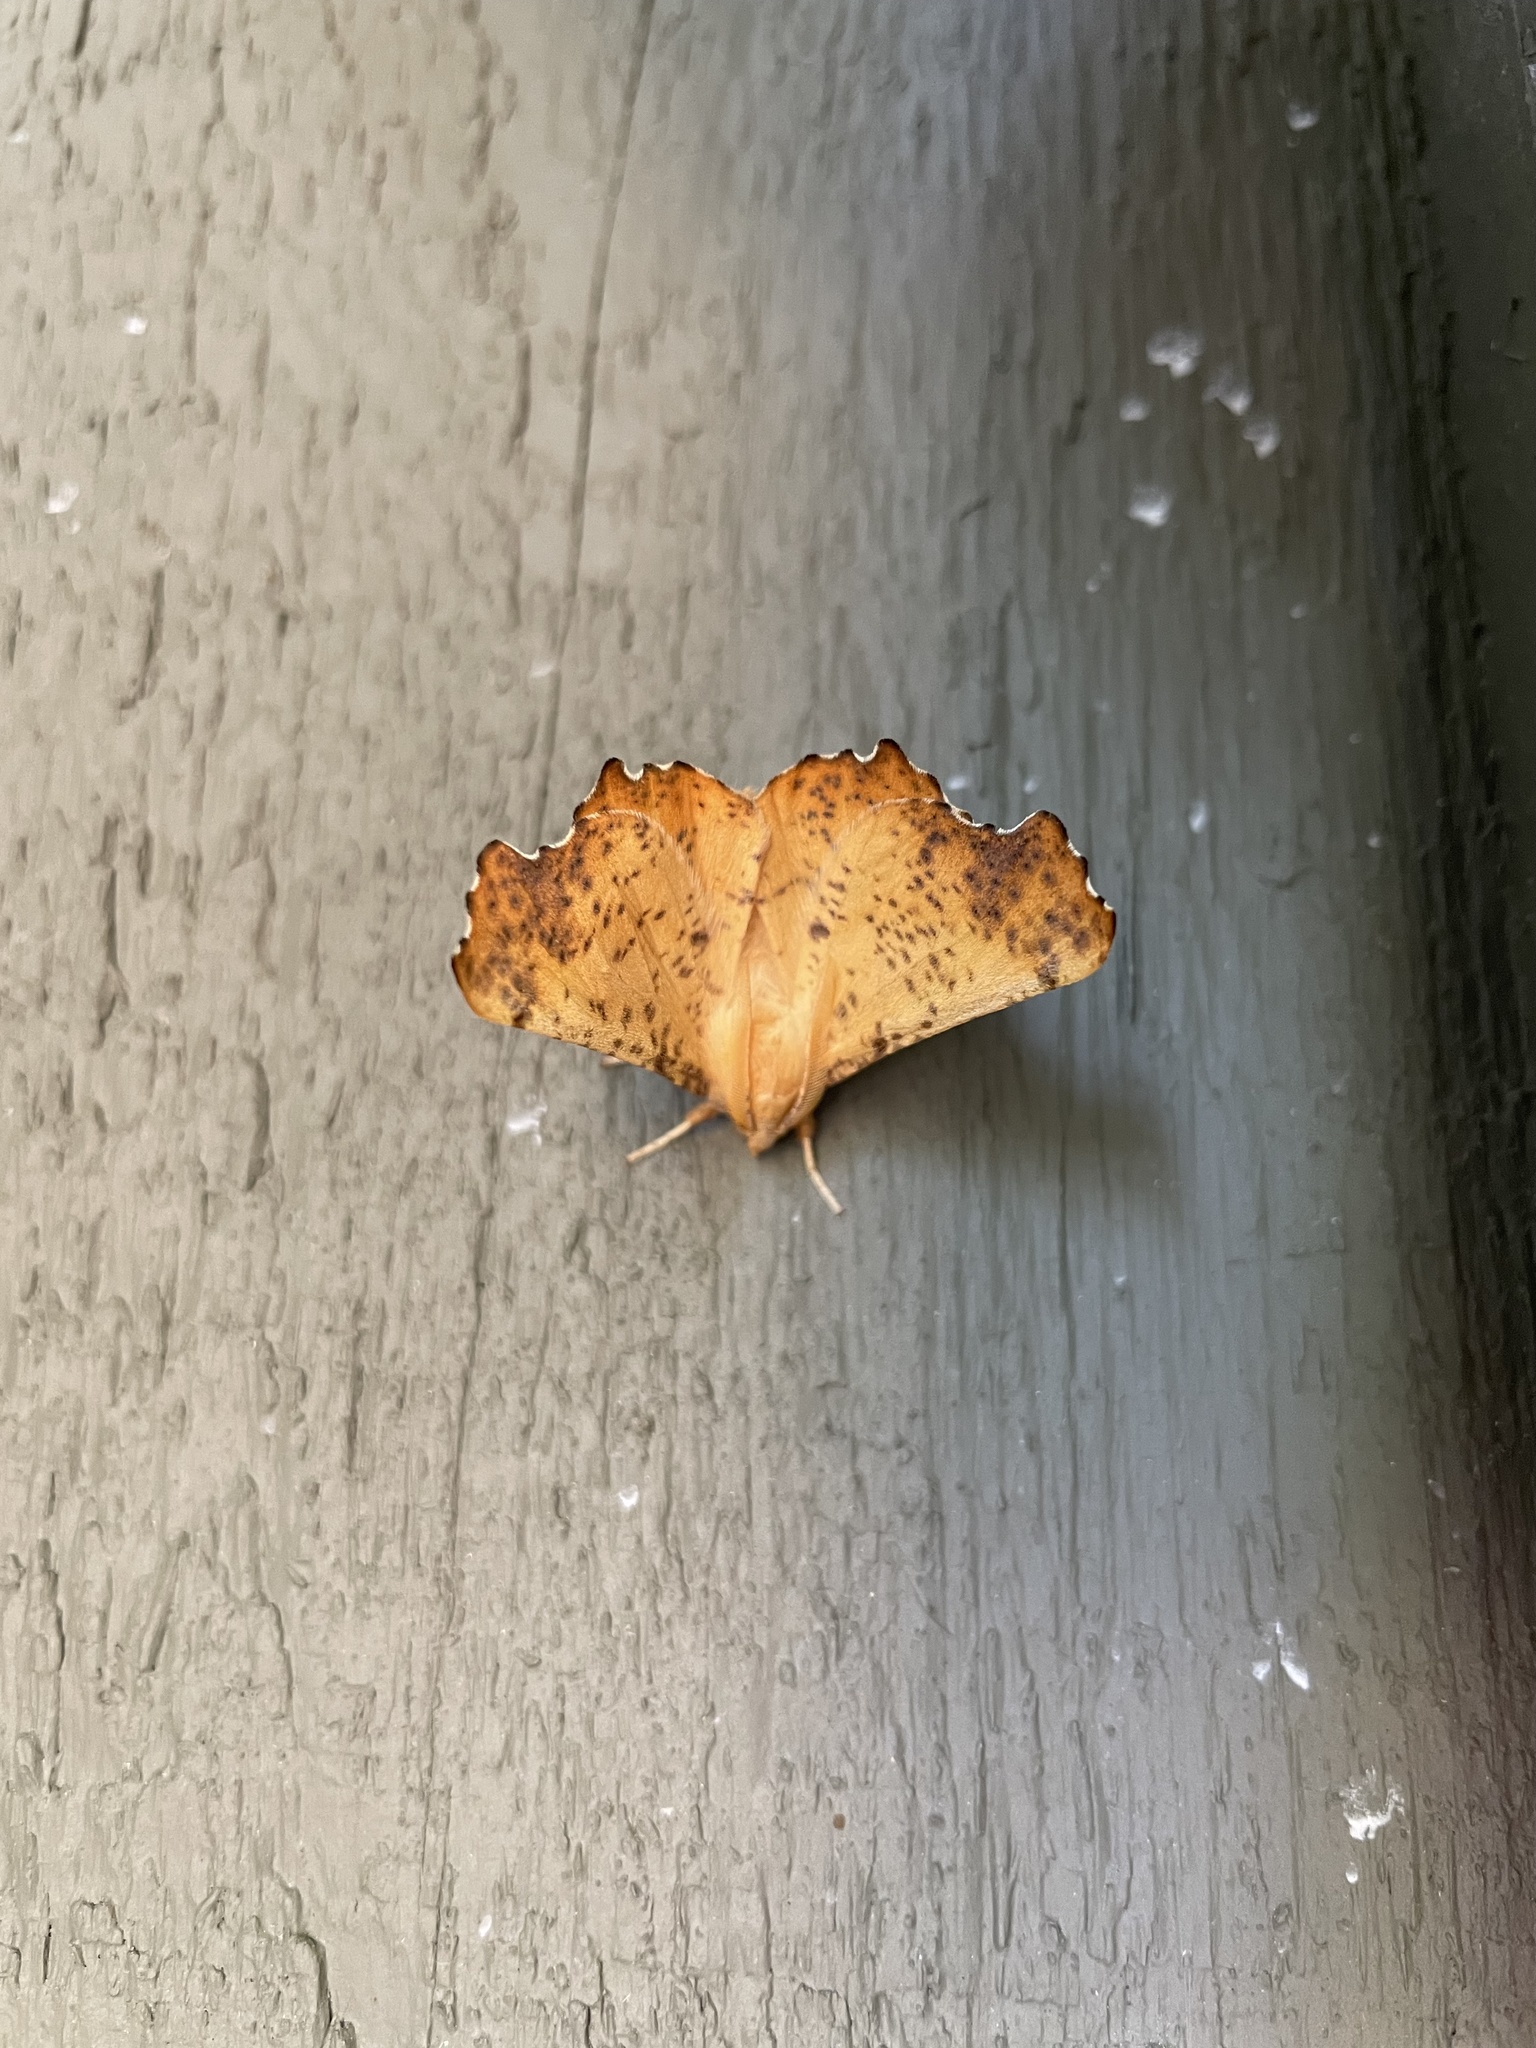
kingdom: Animalia
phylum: Arthropoda
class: Insecta
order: Lepidoptera
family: Geometridae
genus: Ennomos
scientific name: Ennomos magnaria
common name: Maple spanworm
